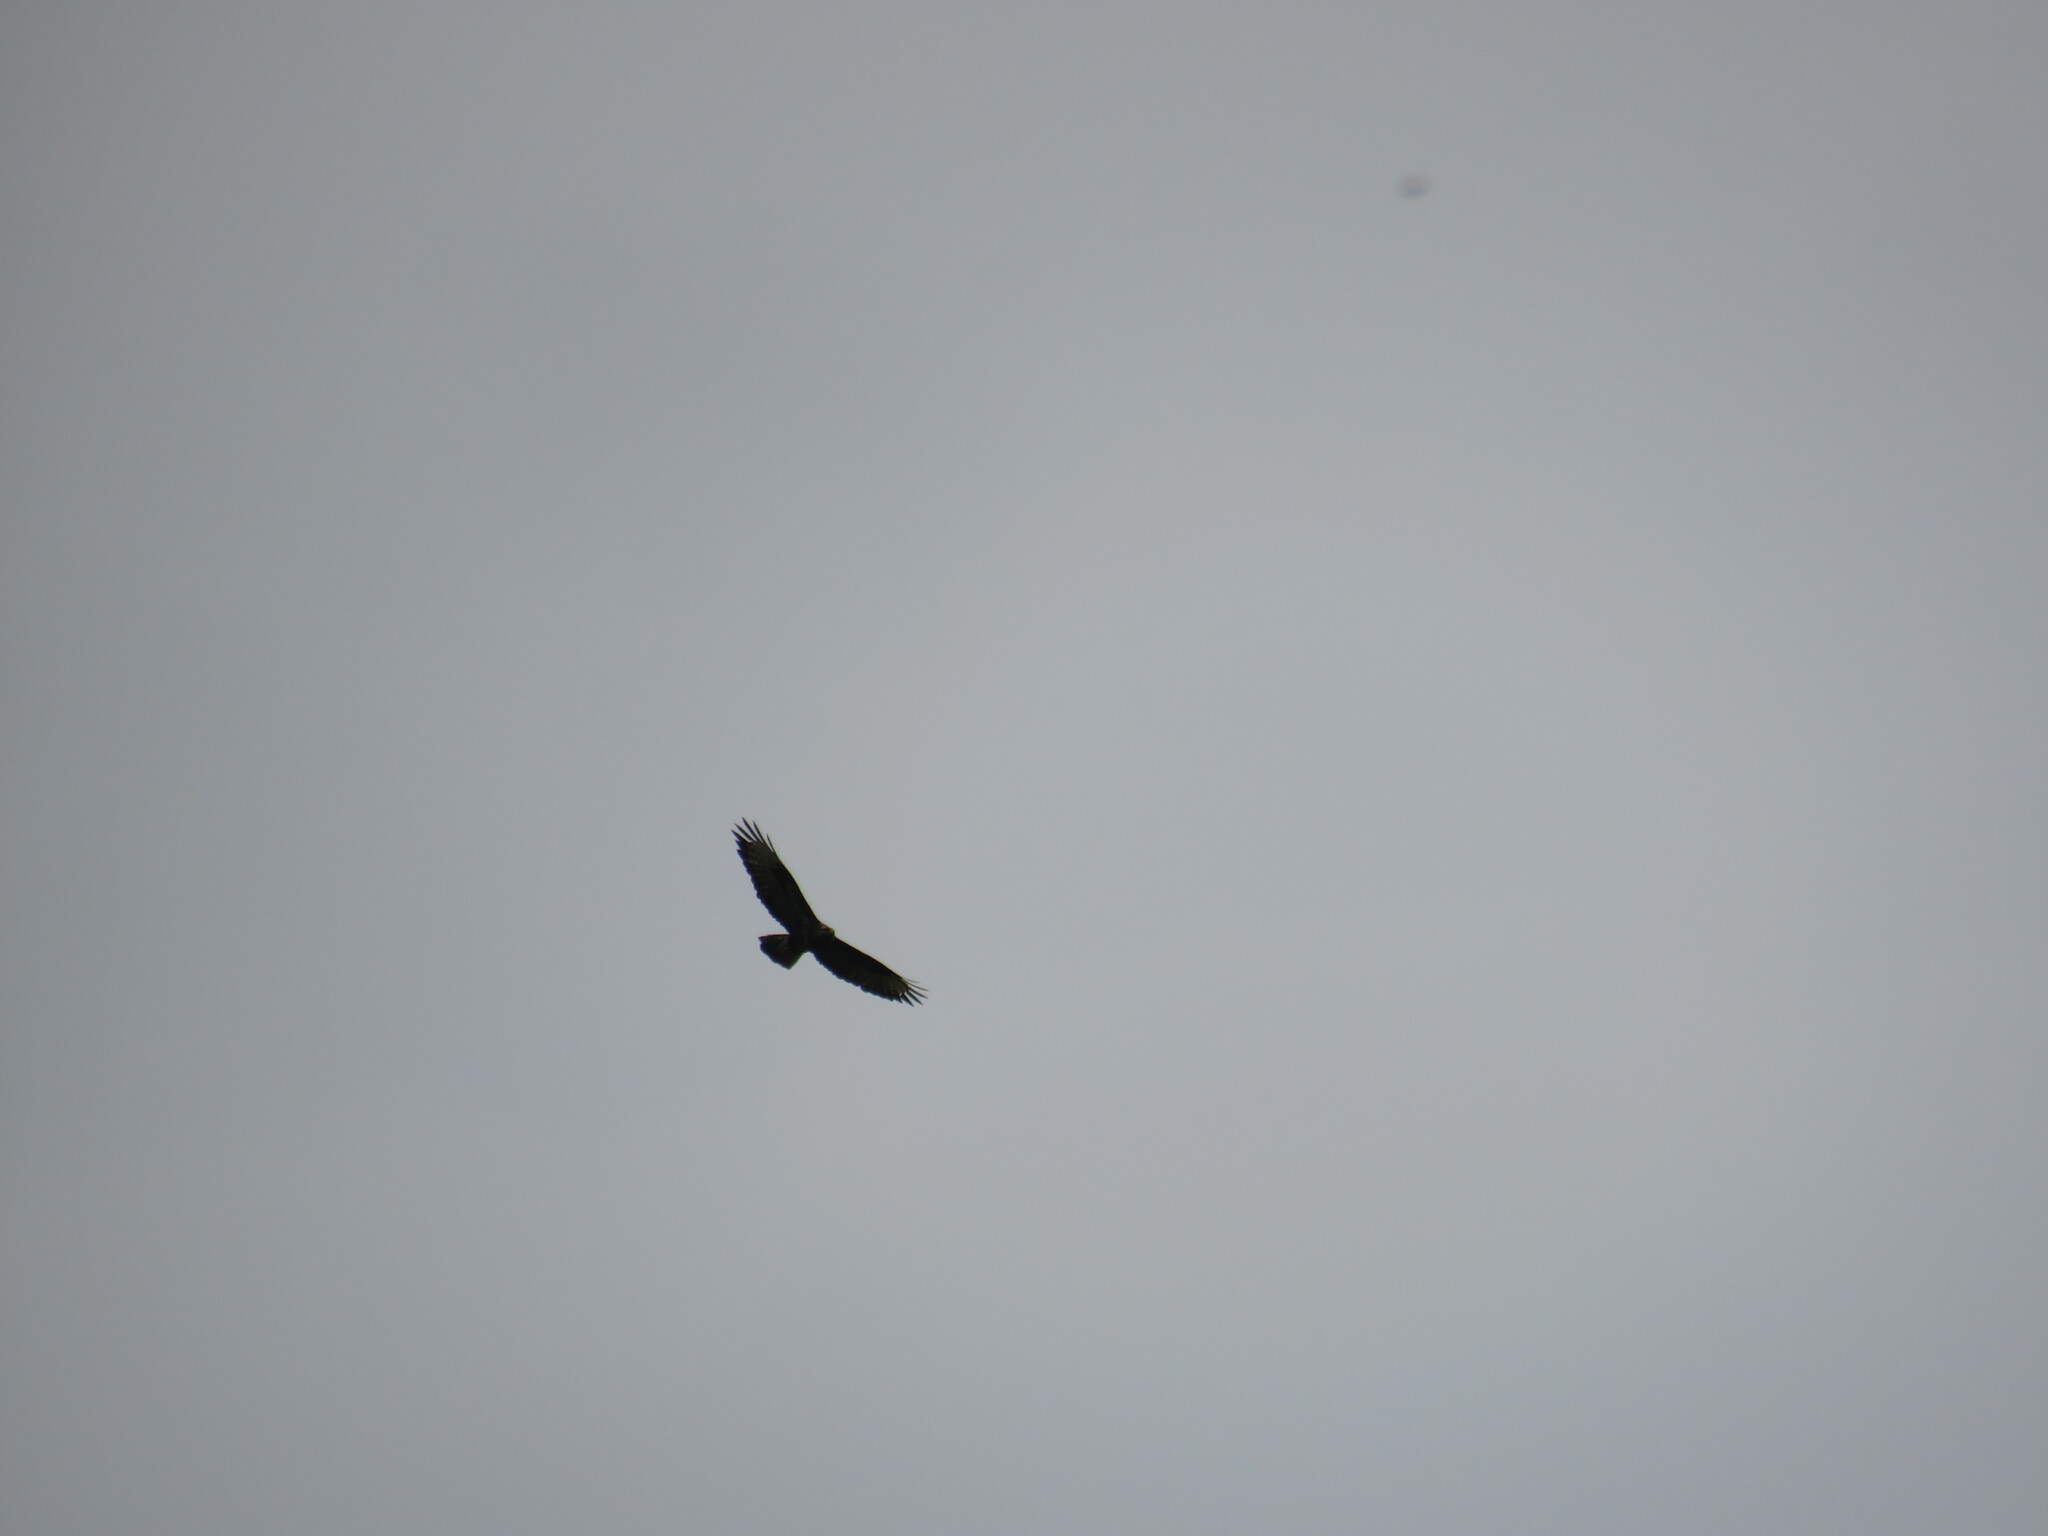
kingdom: Animalia
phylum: Chordata
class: Aves
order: Accipitriformes
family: Accipitridae
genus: Buteo
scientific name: Buteo buteo
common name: Common buzzard
